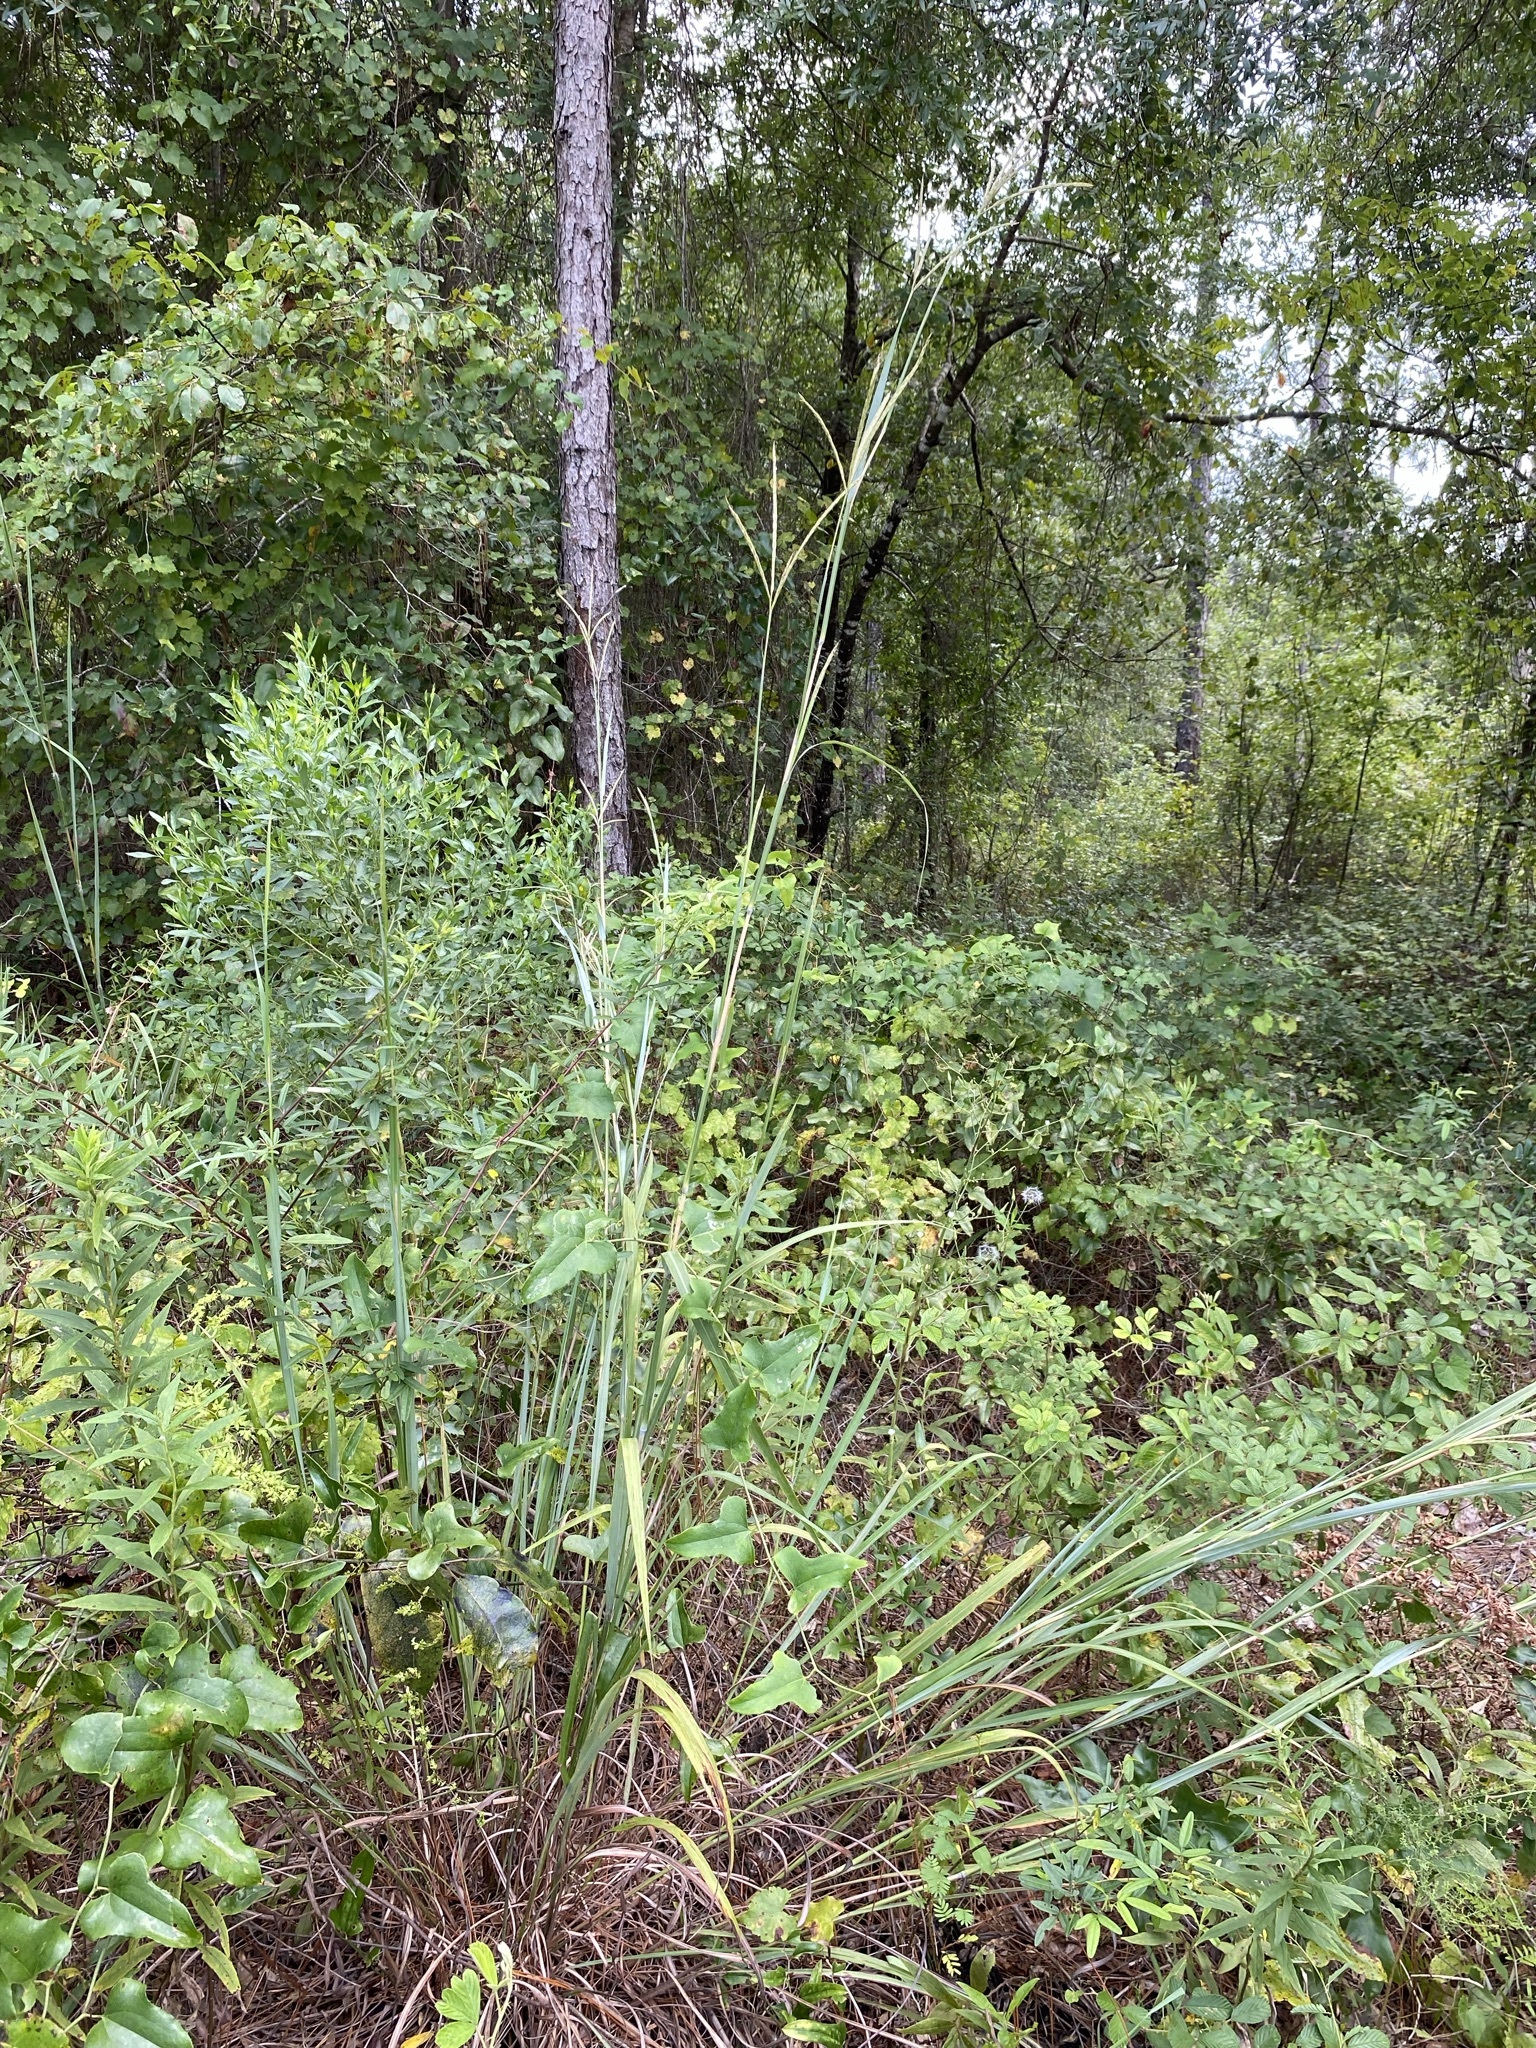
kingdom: Plantae
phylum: Tracheophyta
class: Liliopsida
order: Poales
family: Poaceae
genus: Andropogon
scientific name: Andropogon gerardi
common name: Big bluestem
